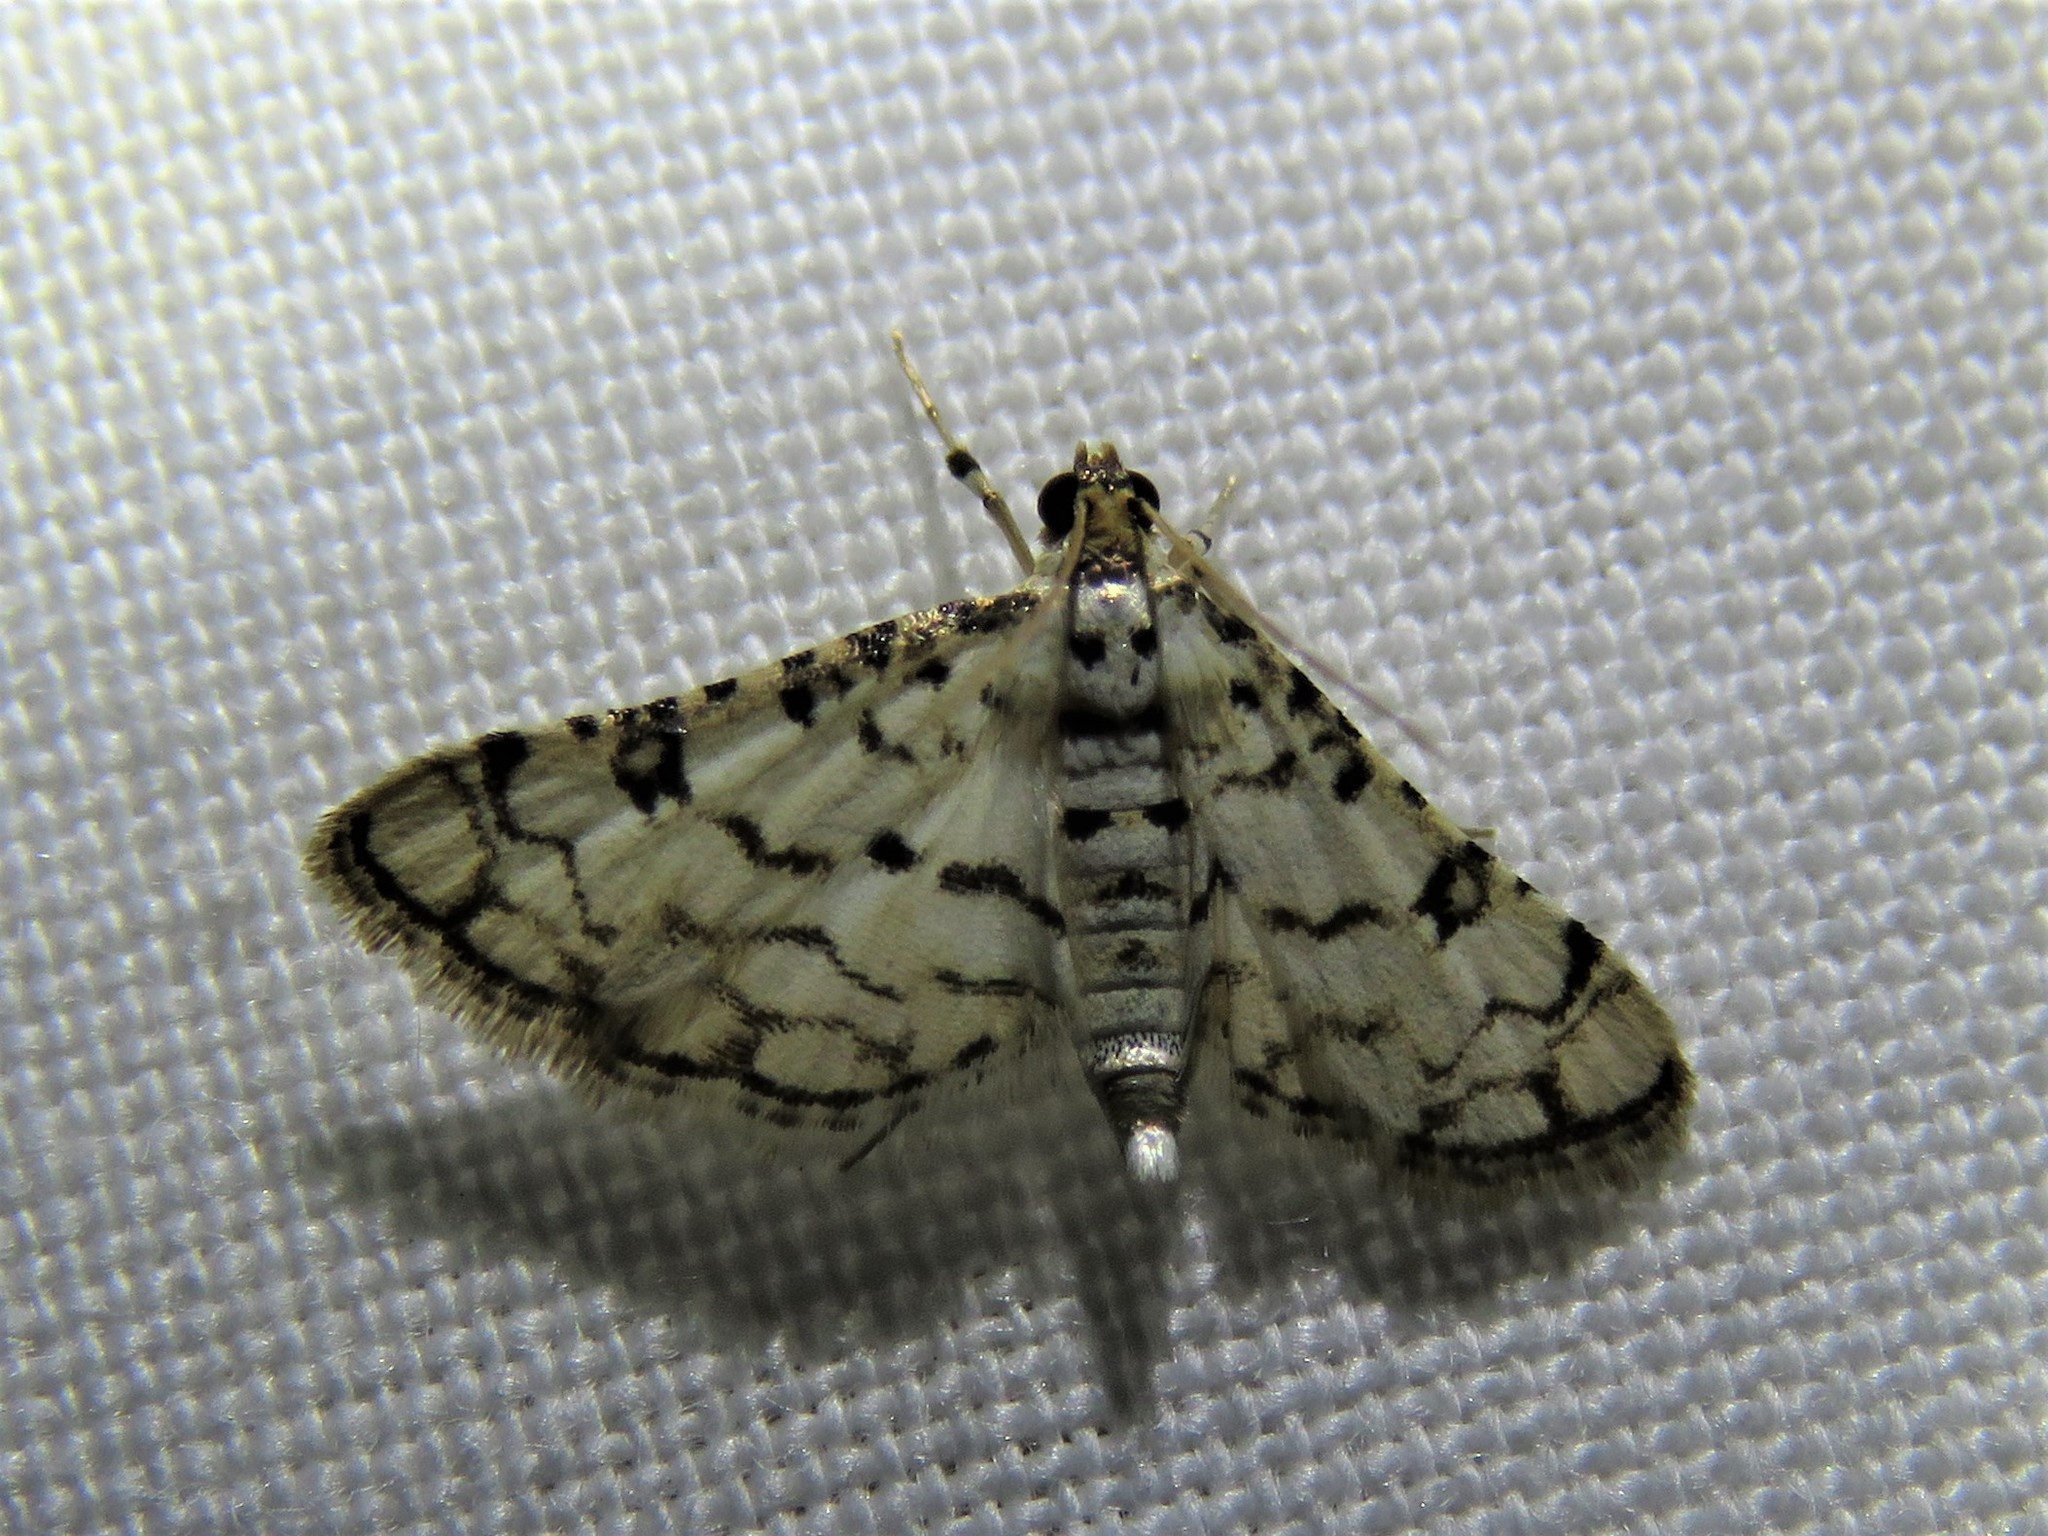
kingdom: Animalia
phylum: Arthropoda
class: Insecta
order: Lepidoptera
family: Crambidae
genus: Hileithia
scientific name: Hileithia rehamalis
